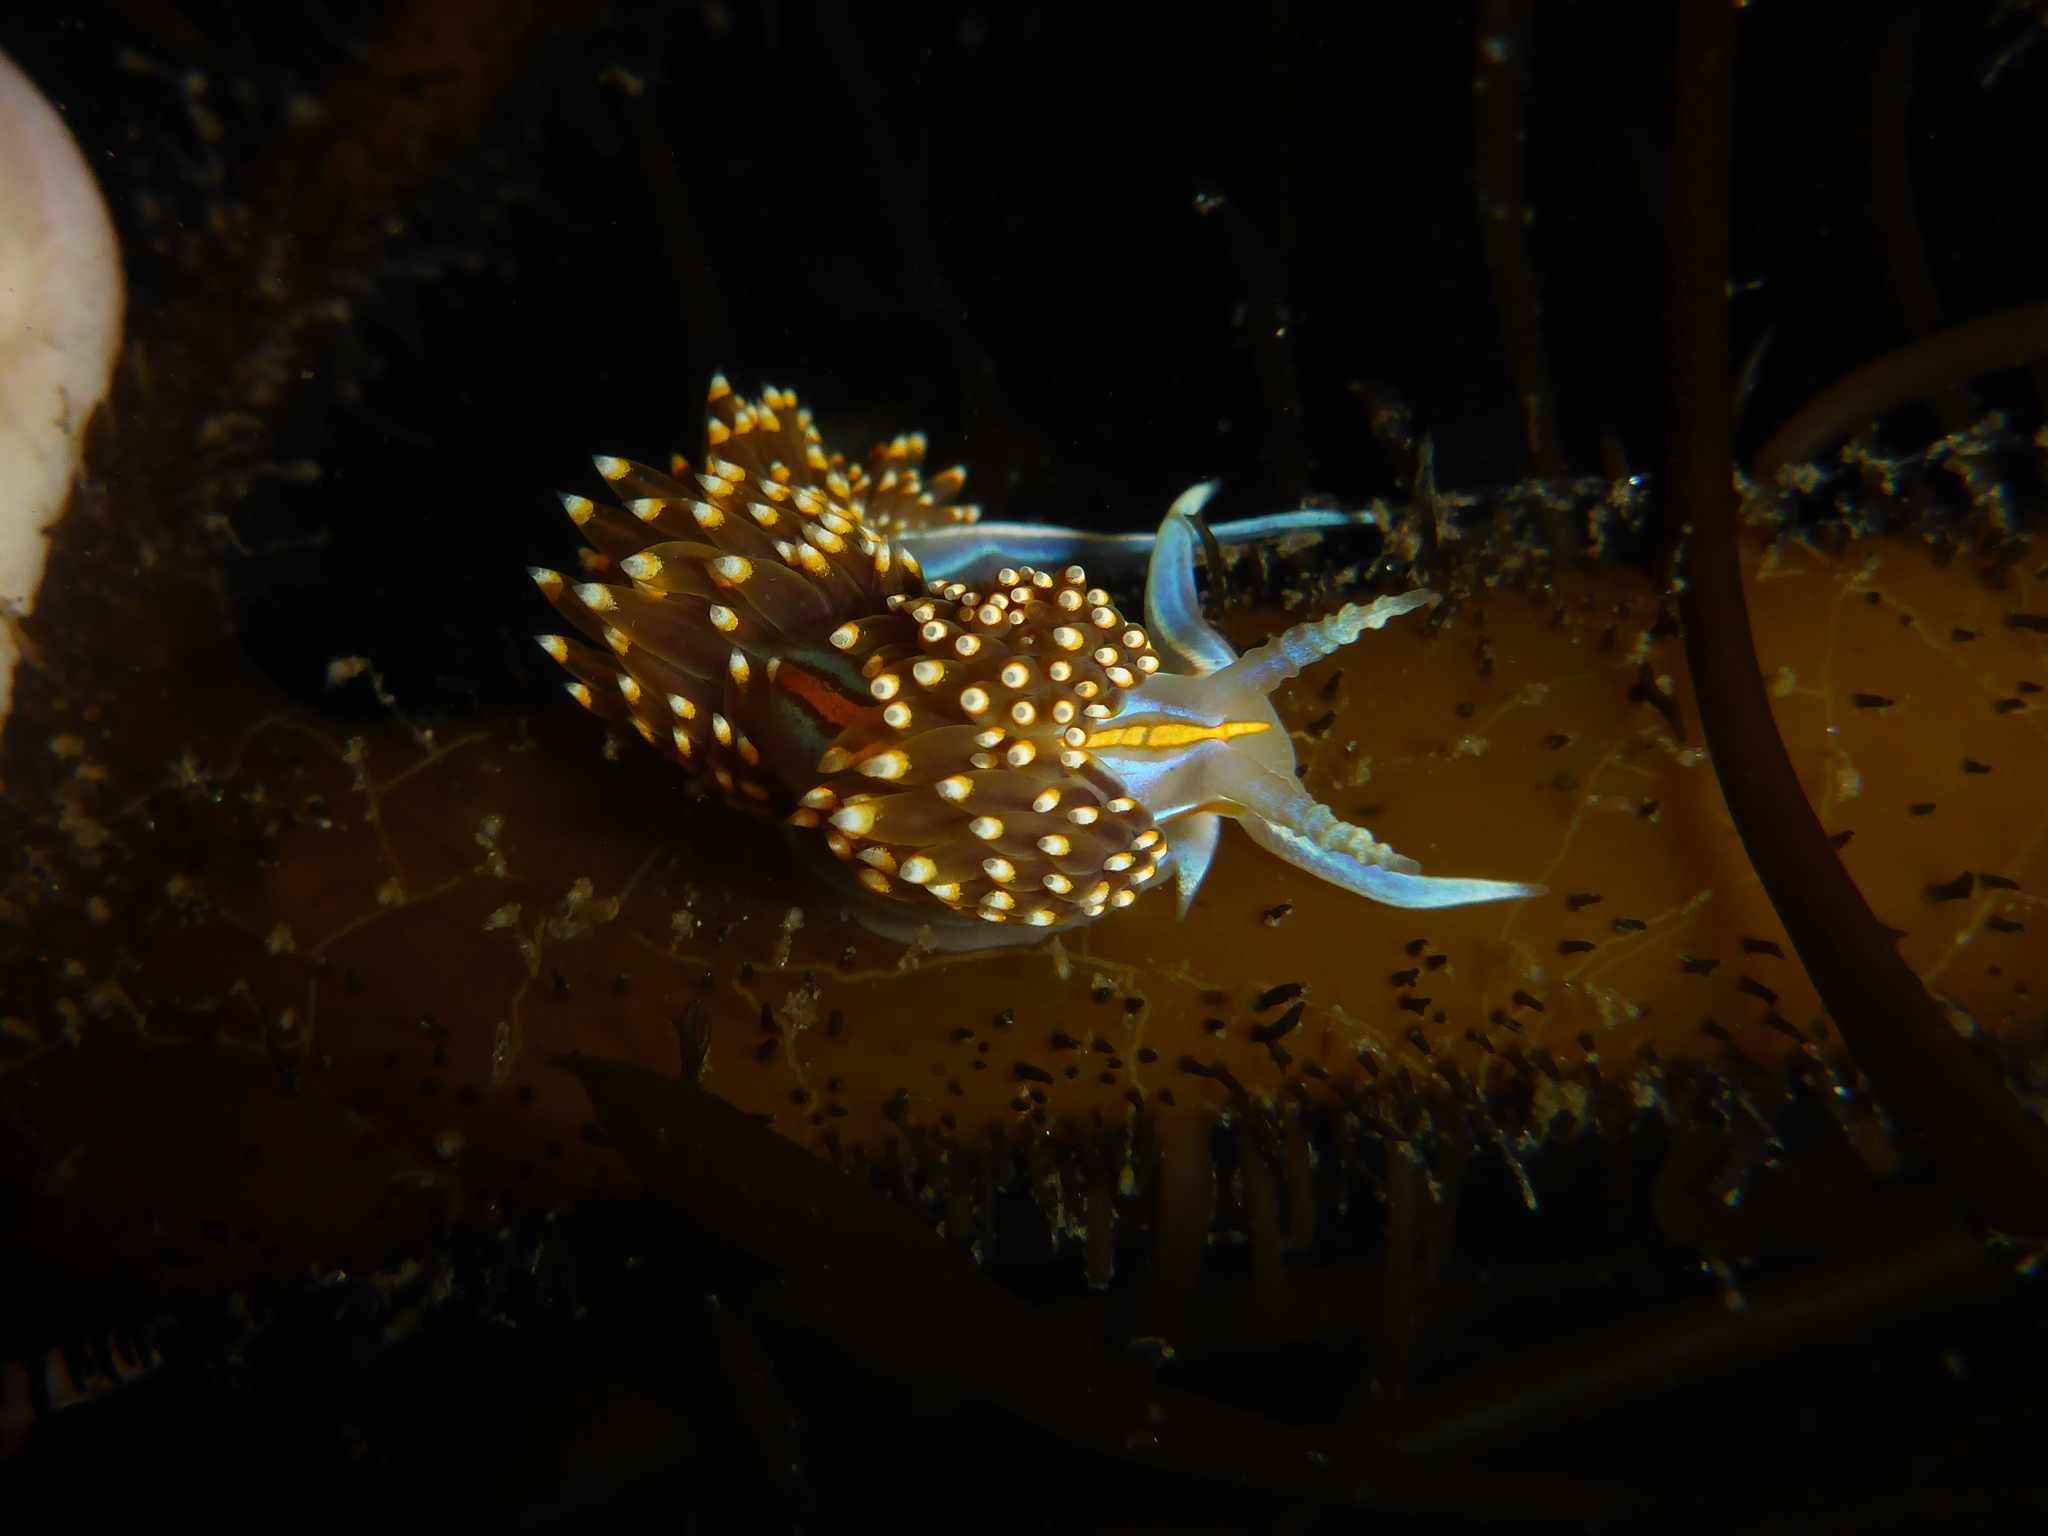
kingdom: Animalia
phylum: Mollusca
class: Gastropoda
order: Nudibranchia
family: Myrrhinidae
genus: Hermissenda
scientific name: Hermissenda opalescens
